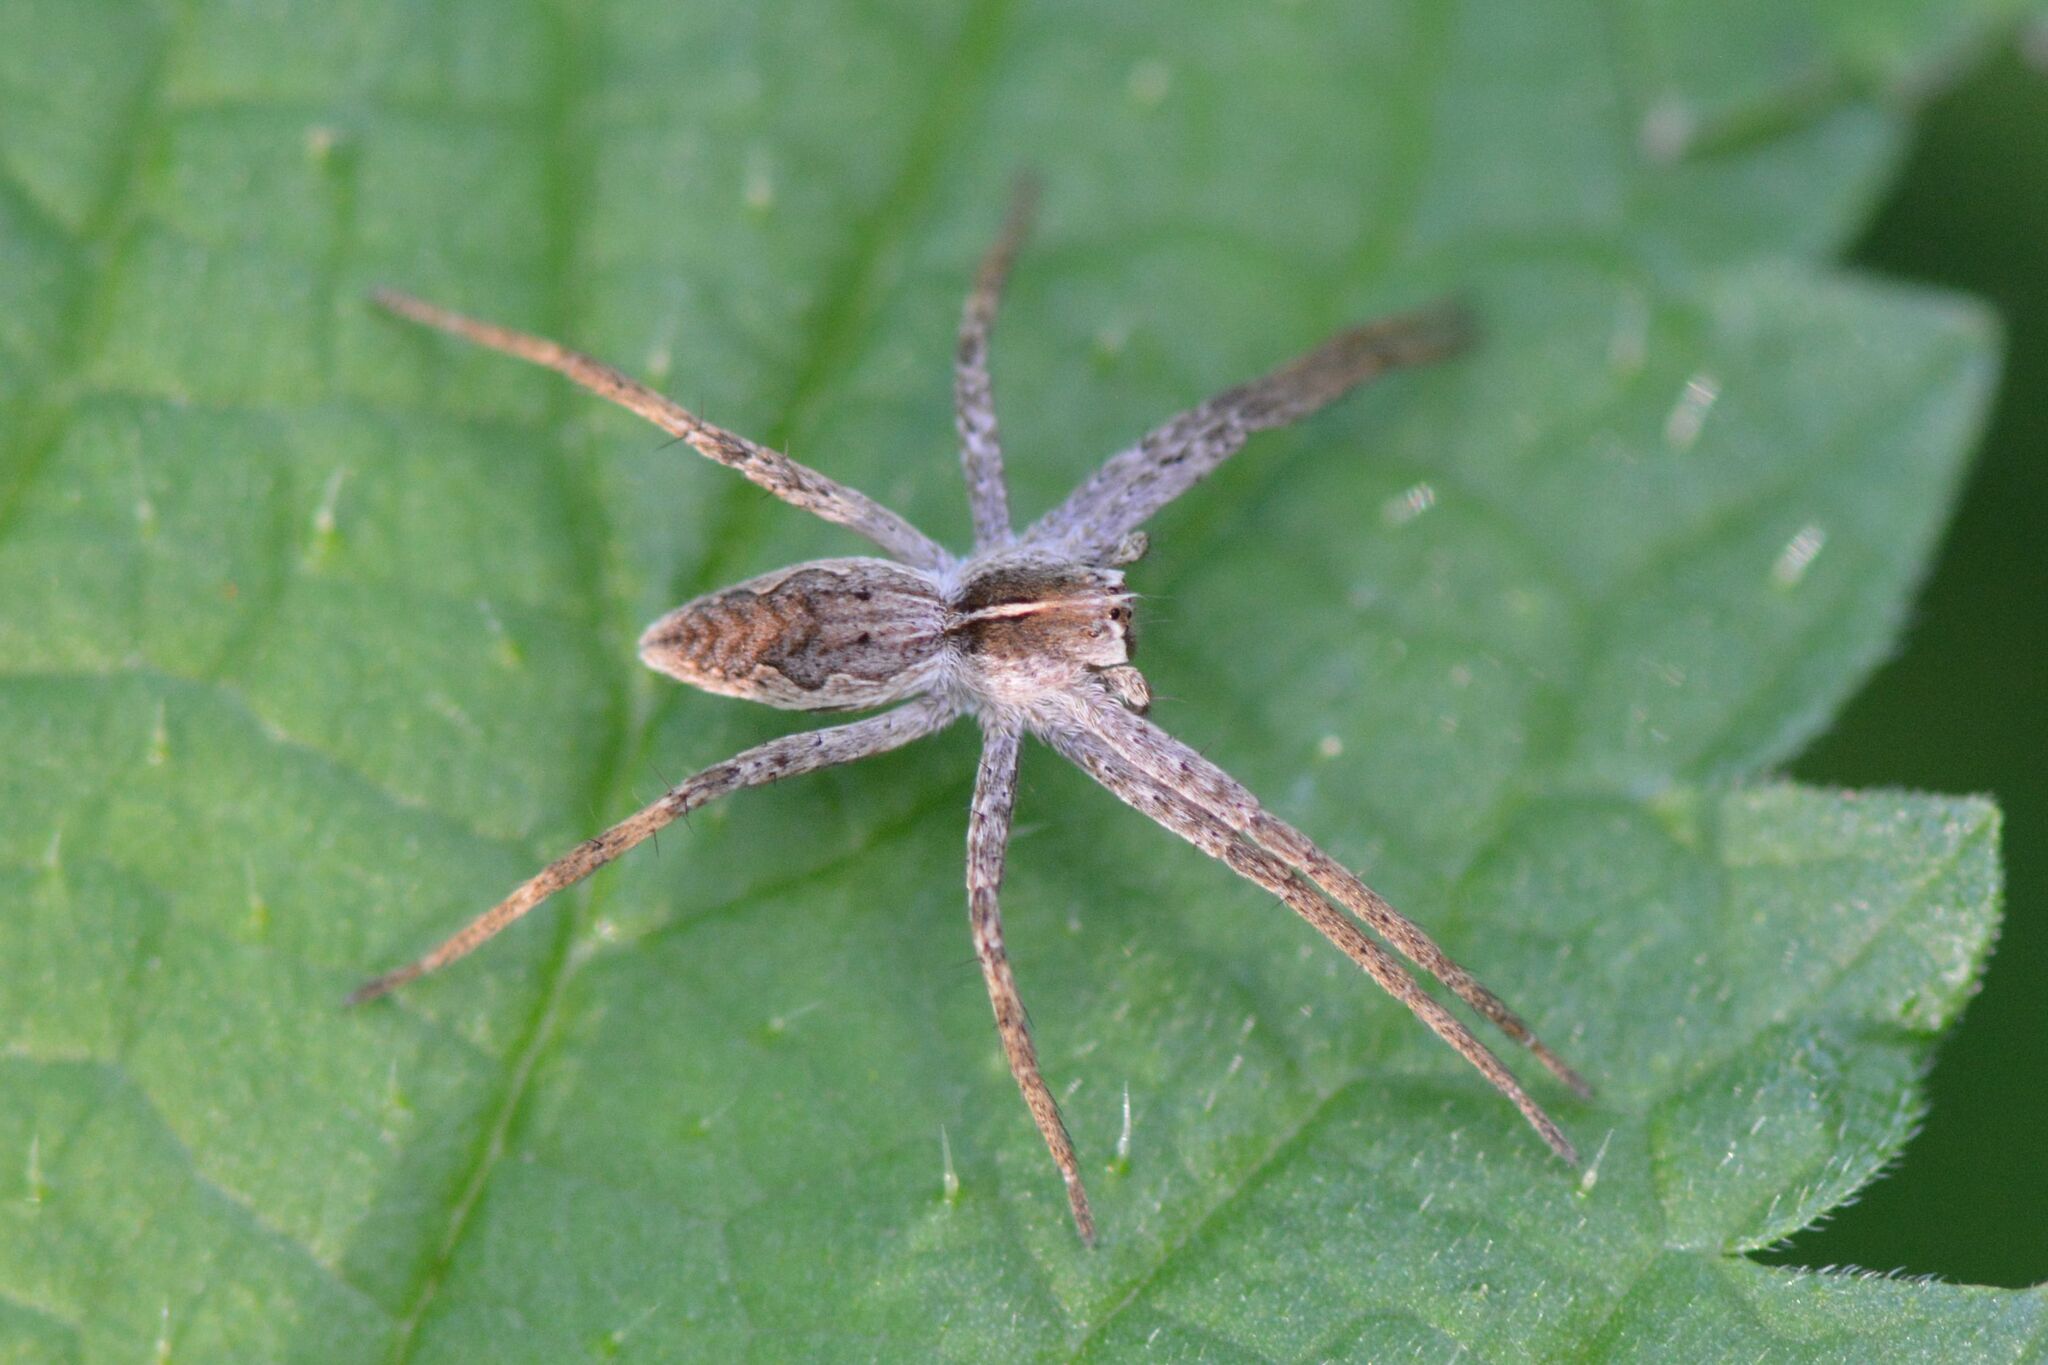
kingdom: Animalia
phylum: Arthropoda
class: Arachnida
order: Araneae
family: Pisauridae
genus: Pisaura
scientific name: Pisaura mirabilis
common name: Tent spider
